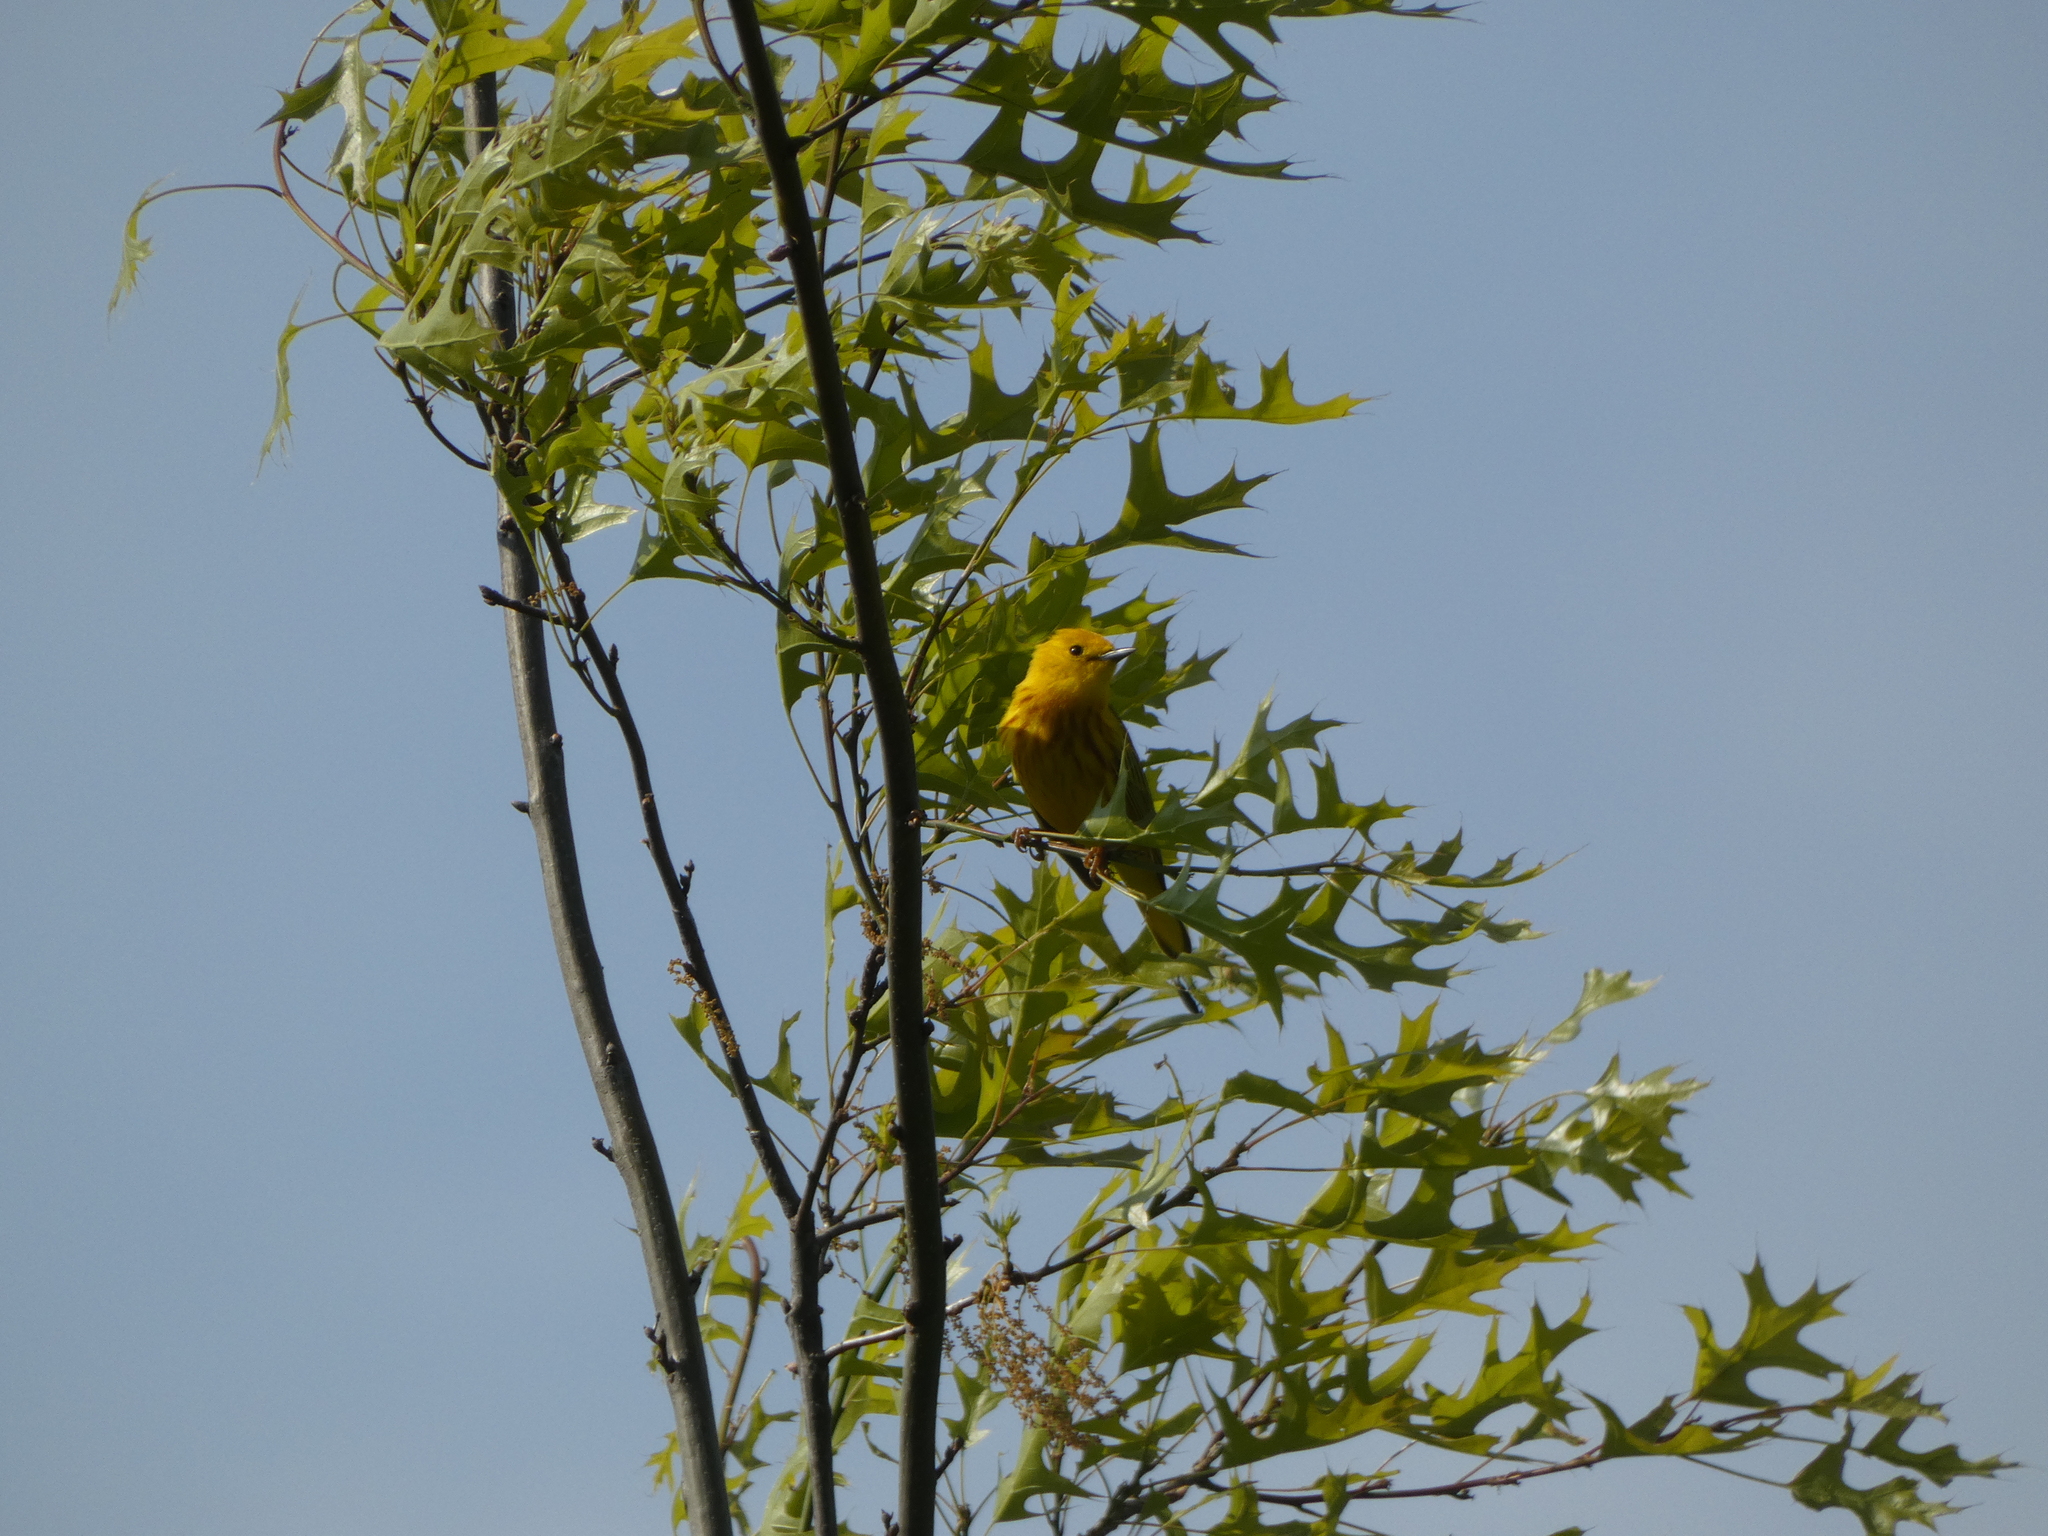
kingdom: Animalia
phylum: Chordata
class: Aves
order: Passeriformes
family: Parulidae
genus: Setophaga
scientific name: Setophaga petechia
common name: Yellow warbler
